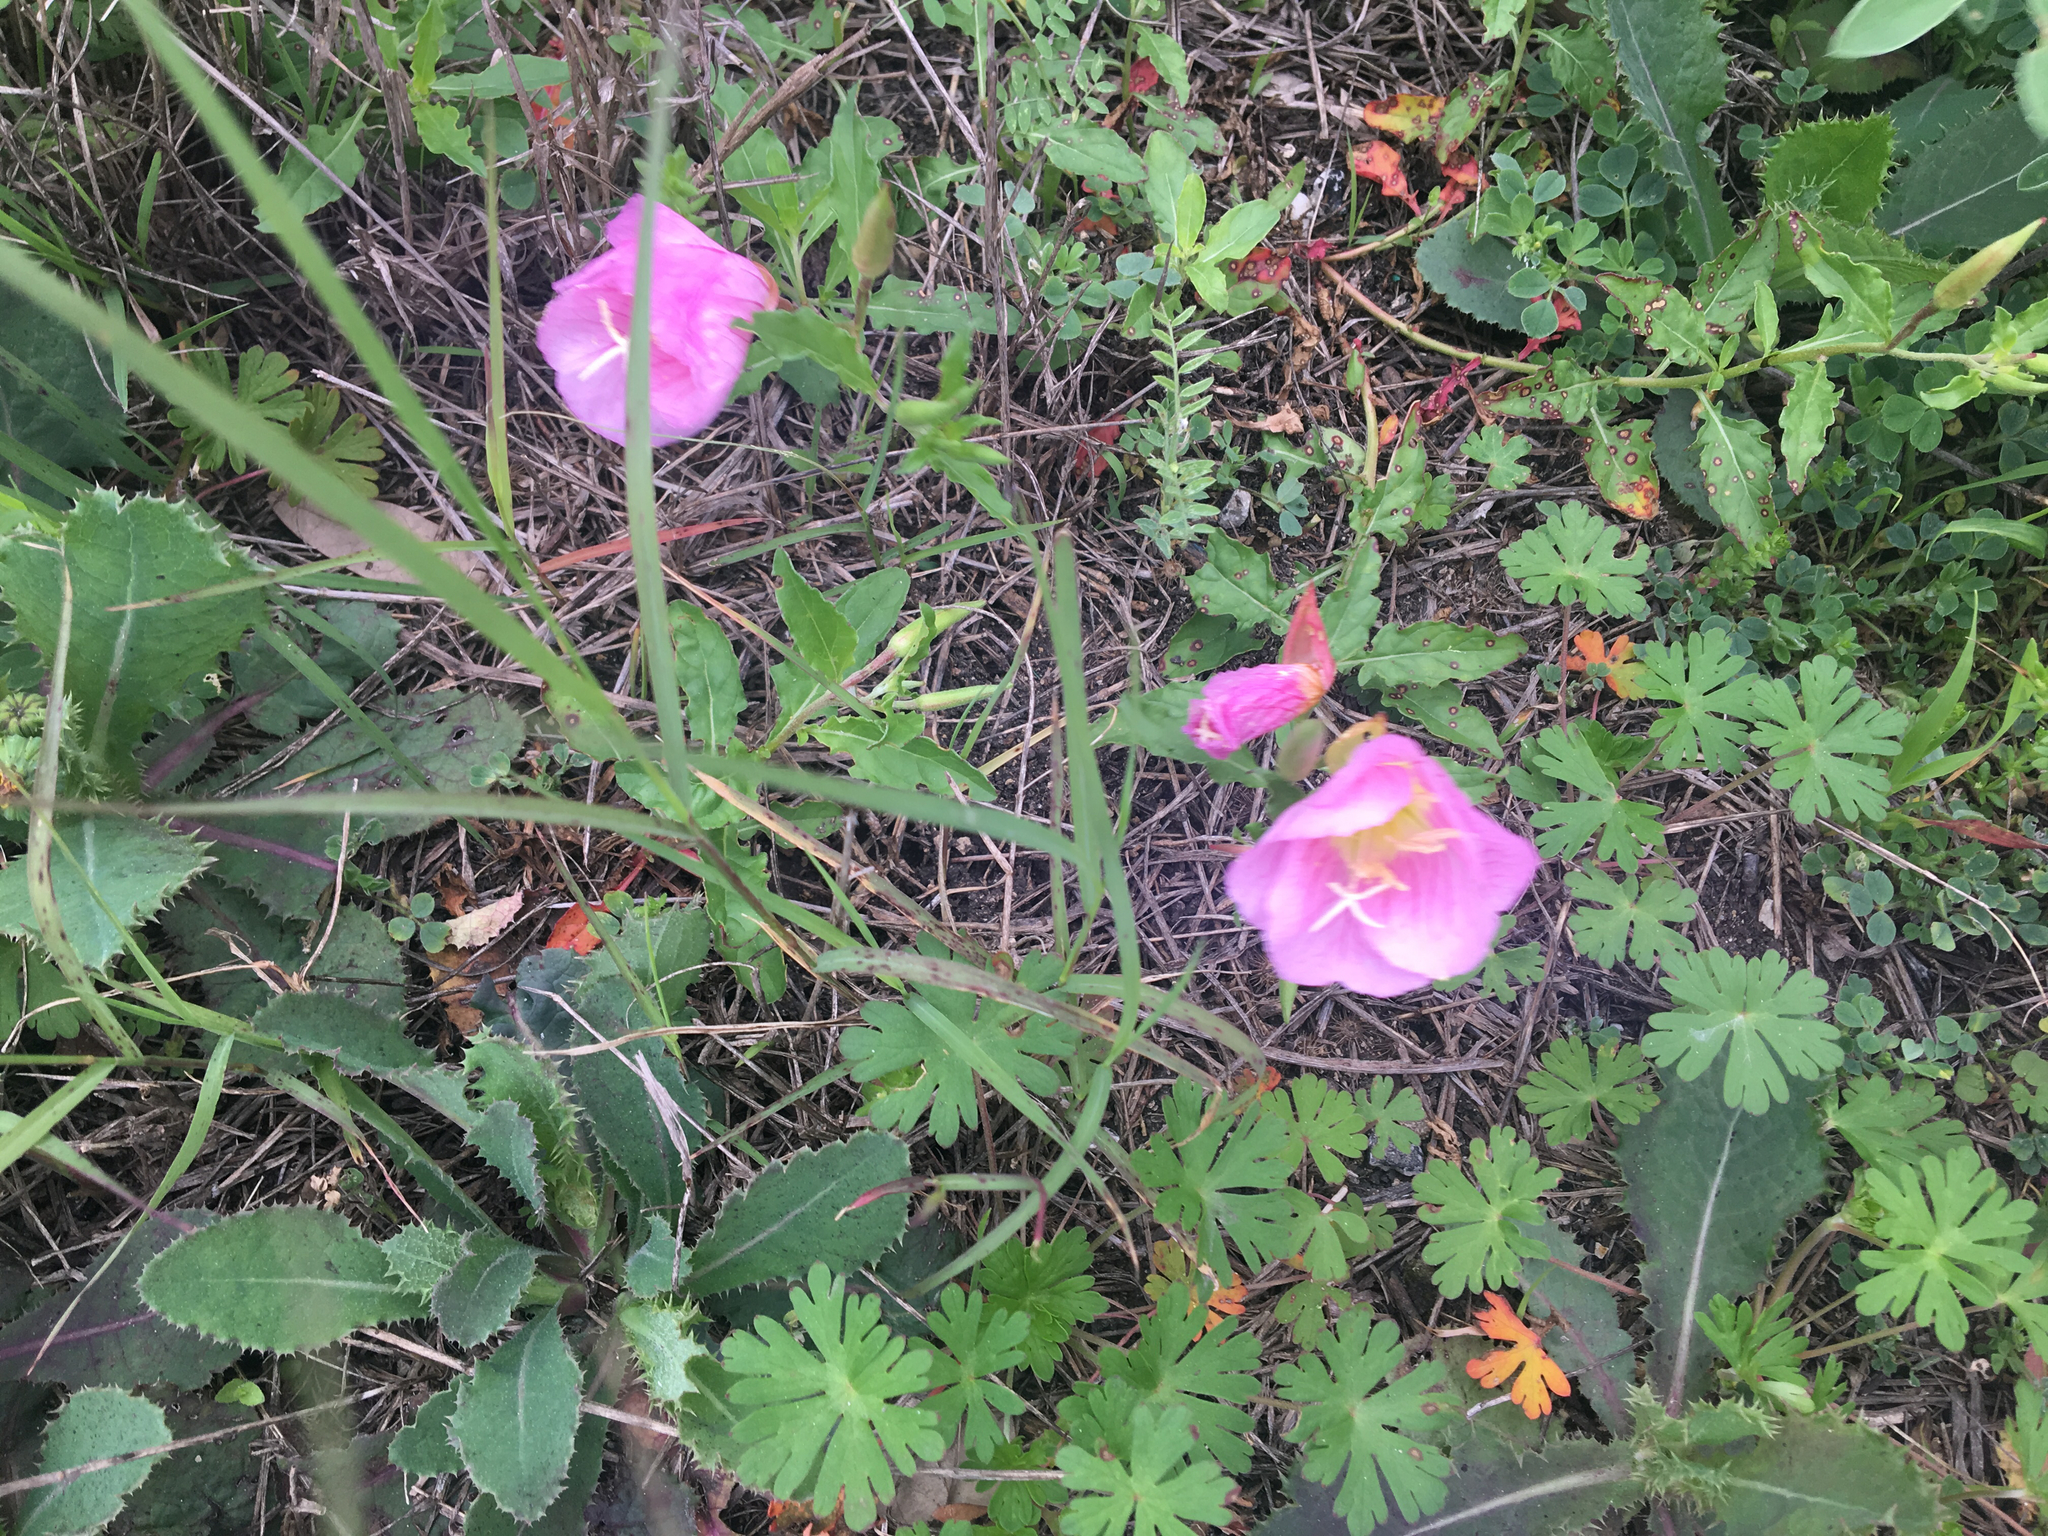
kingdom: Plantae
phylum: Tracheophyta
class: Magnoliopsida
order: Myrtales
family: Onagraceae
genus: Oenothera
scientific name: Oenothera speciosa
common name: White evening-primrose
